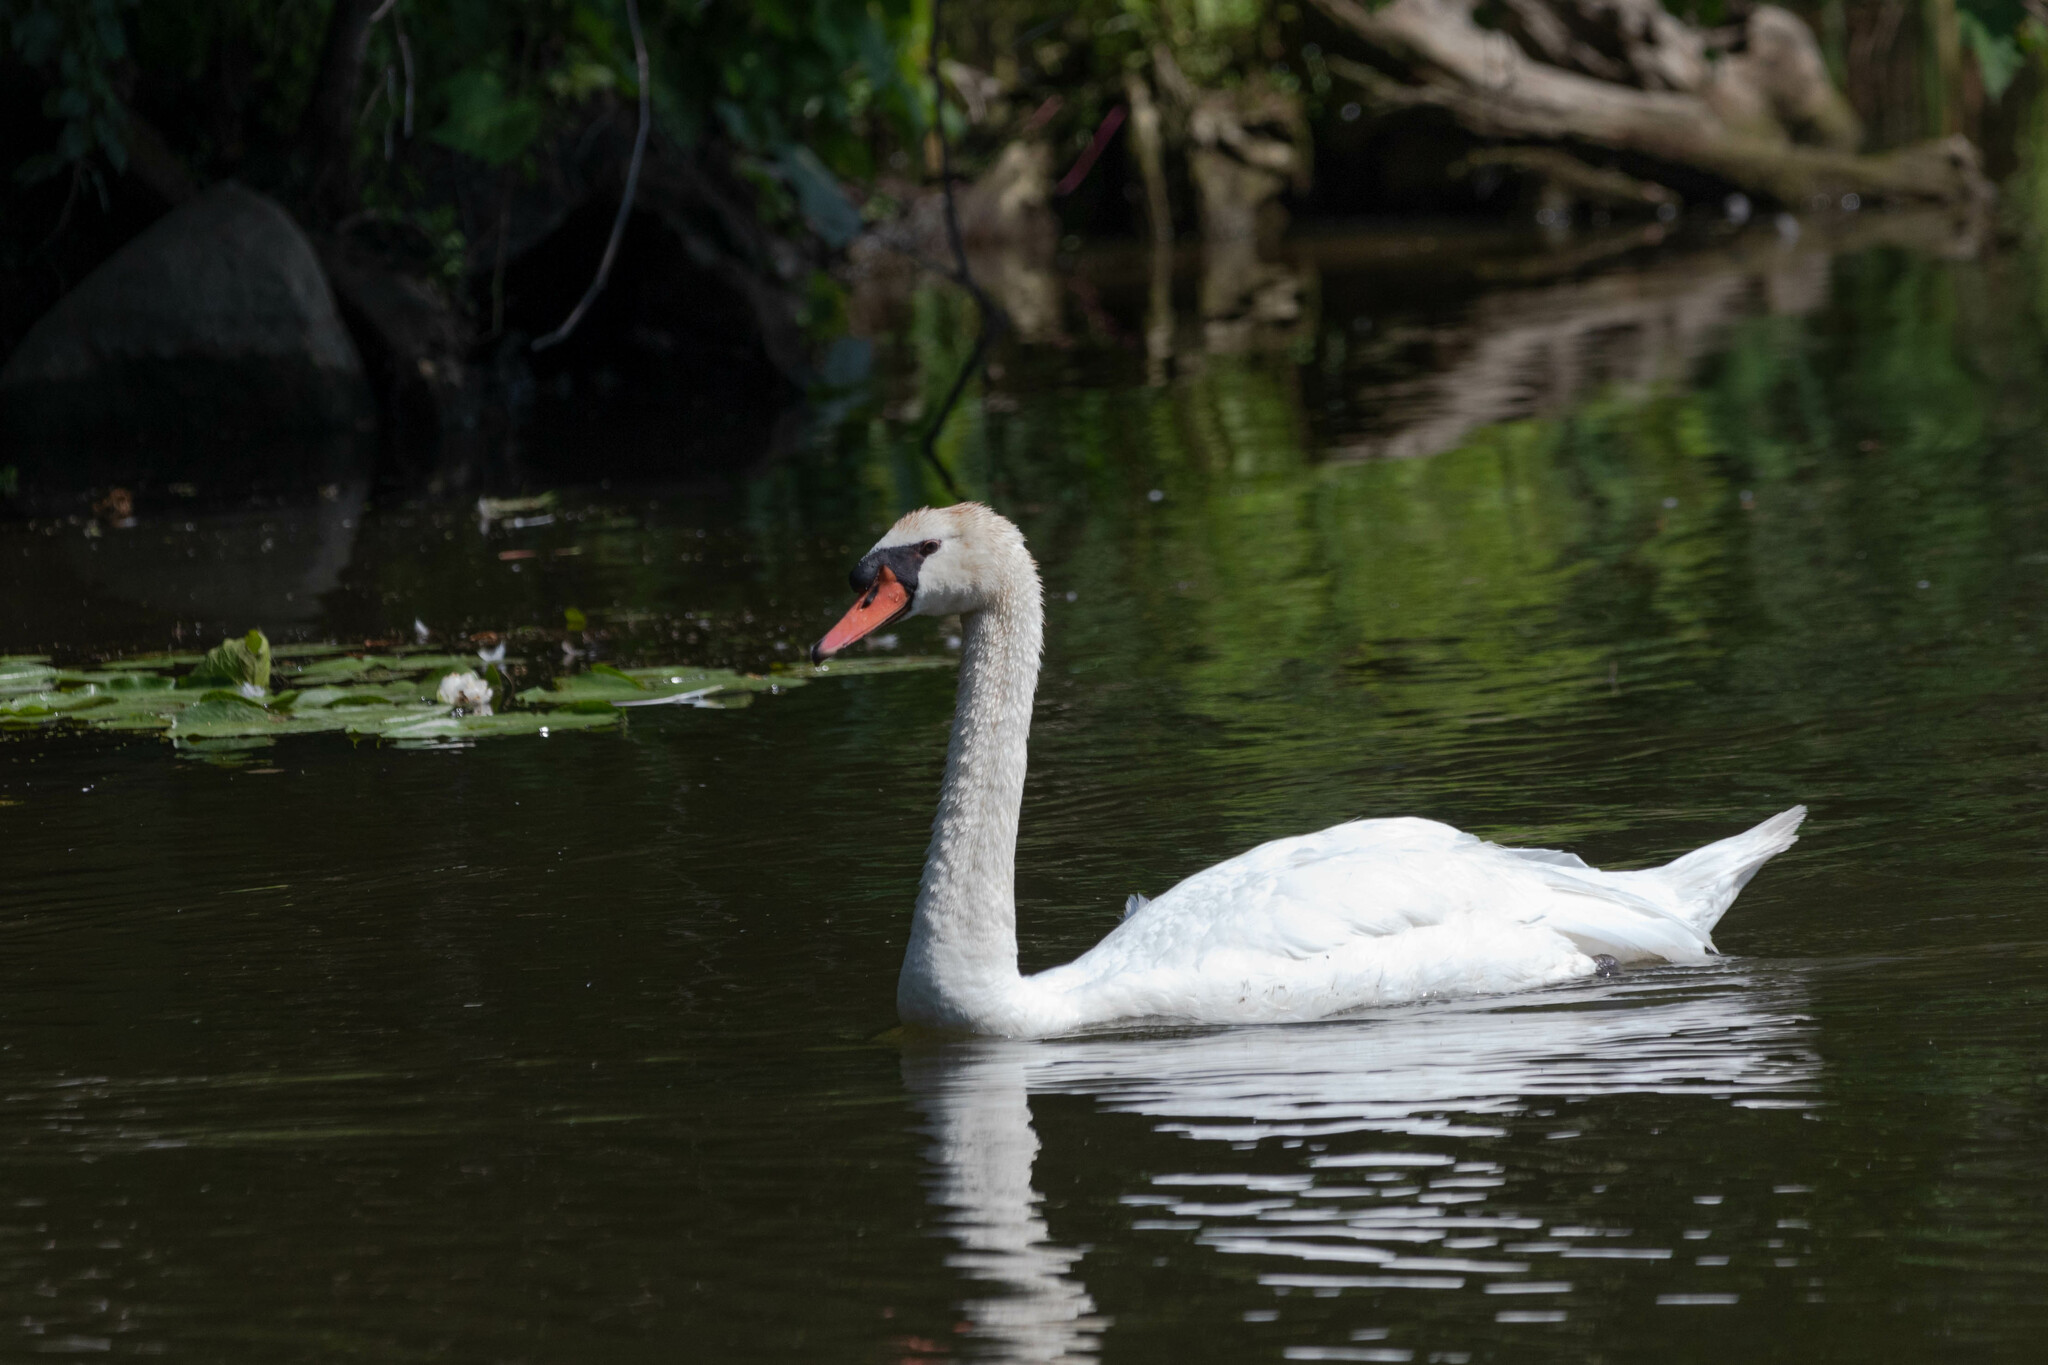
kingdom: Animalia
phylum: Chordata
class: Aves
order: Anseriformes
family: Anatidae
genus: Cygnus
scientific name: Cygnus olor
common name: Mute swan
